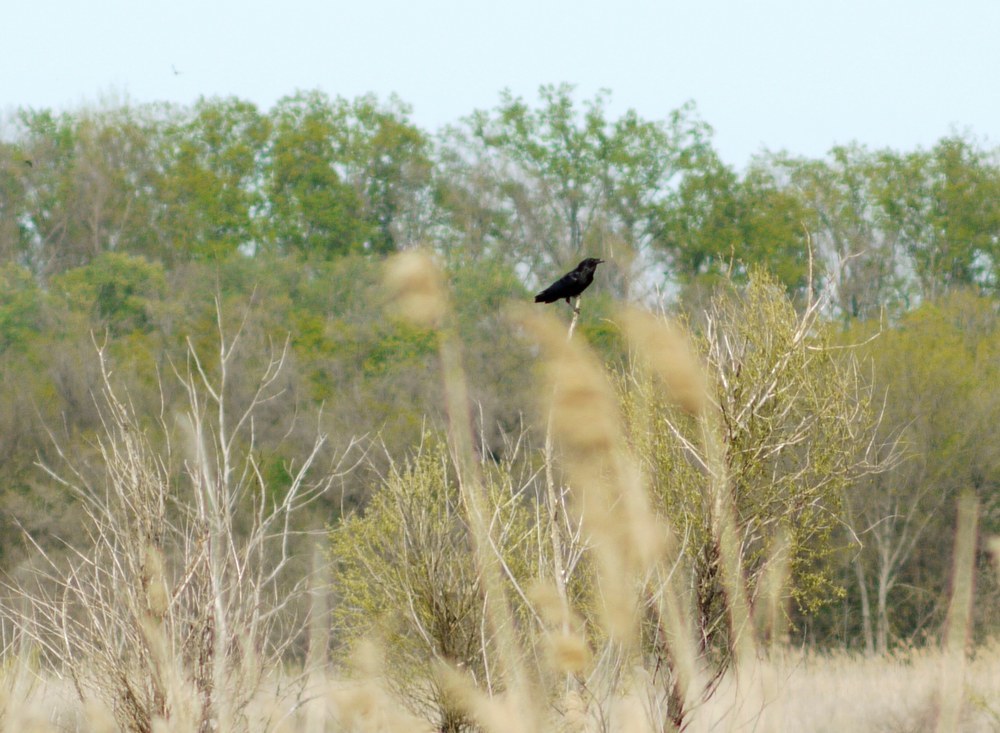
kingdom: Animalia
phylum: Chordata
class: Aves
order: Passeriformes
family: Corvidae
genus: Corvus
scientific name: Corvus corax
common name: Common raven
